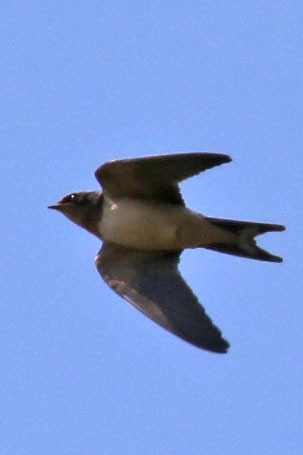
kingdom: Animalia
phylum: Chordata
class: Aves
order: Passeriformes
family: Hirundinidae
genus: Petrochelidon
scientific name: Petrochelidon pyrrhonota
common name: American cliff swallow
